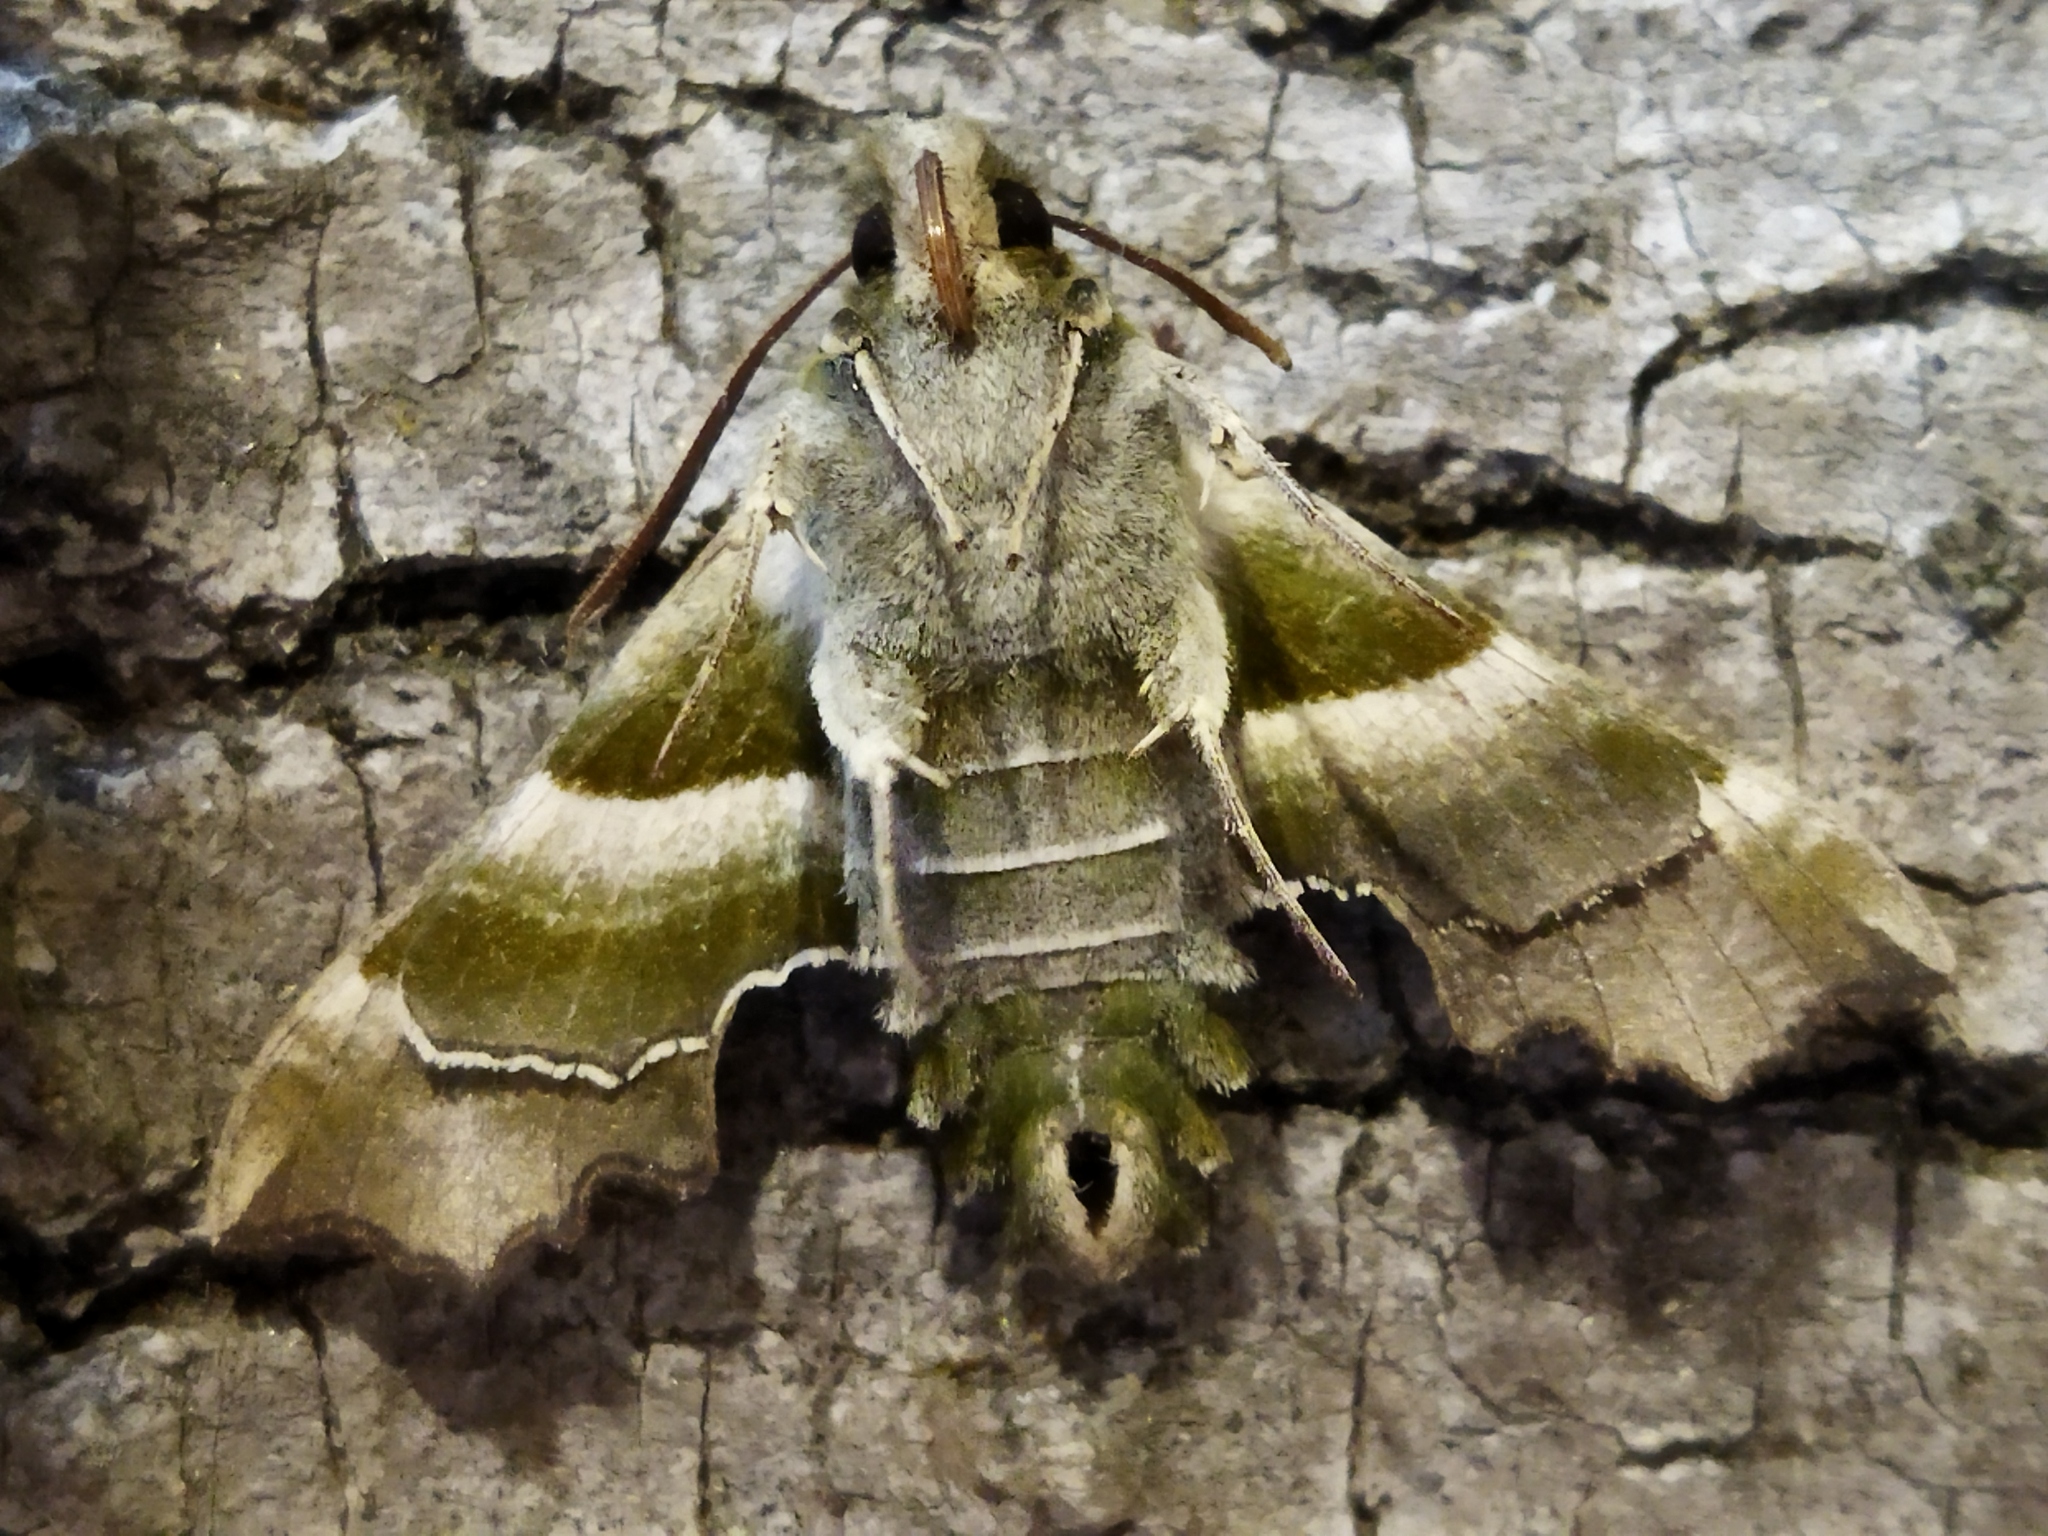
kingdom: Animalia
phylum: Arthropoda
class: Insecta
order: Lepidoptera
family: Sphingidae
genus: Proserpinus
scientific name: Proserpinus proserpina
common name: Willowherb hawkmoth
